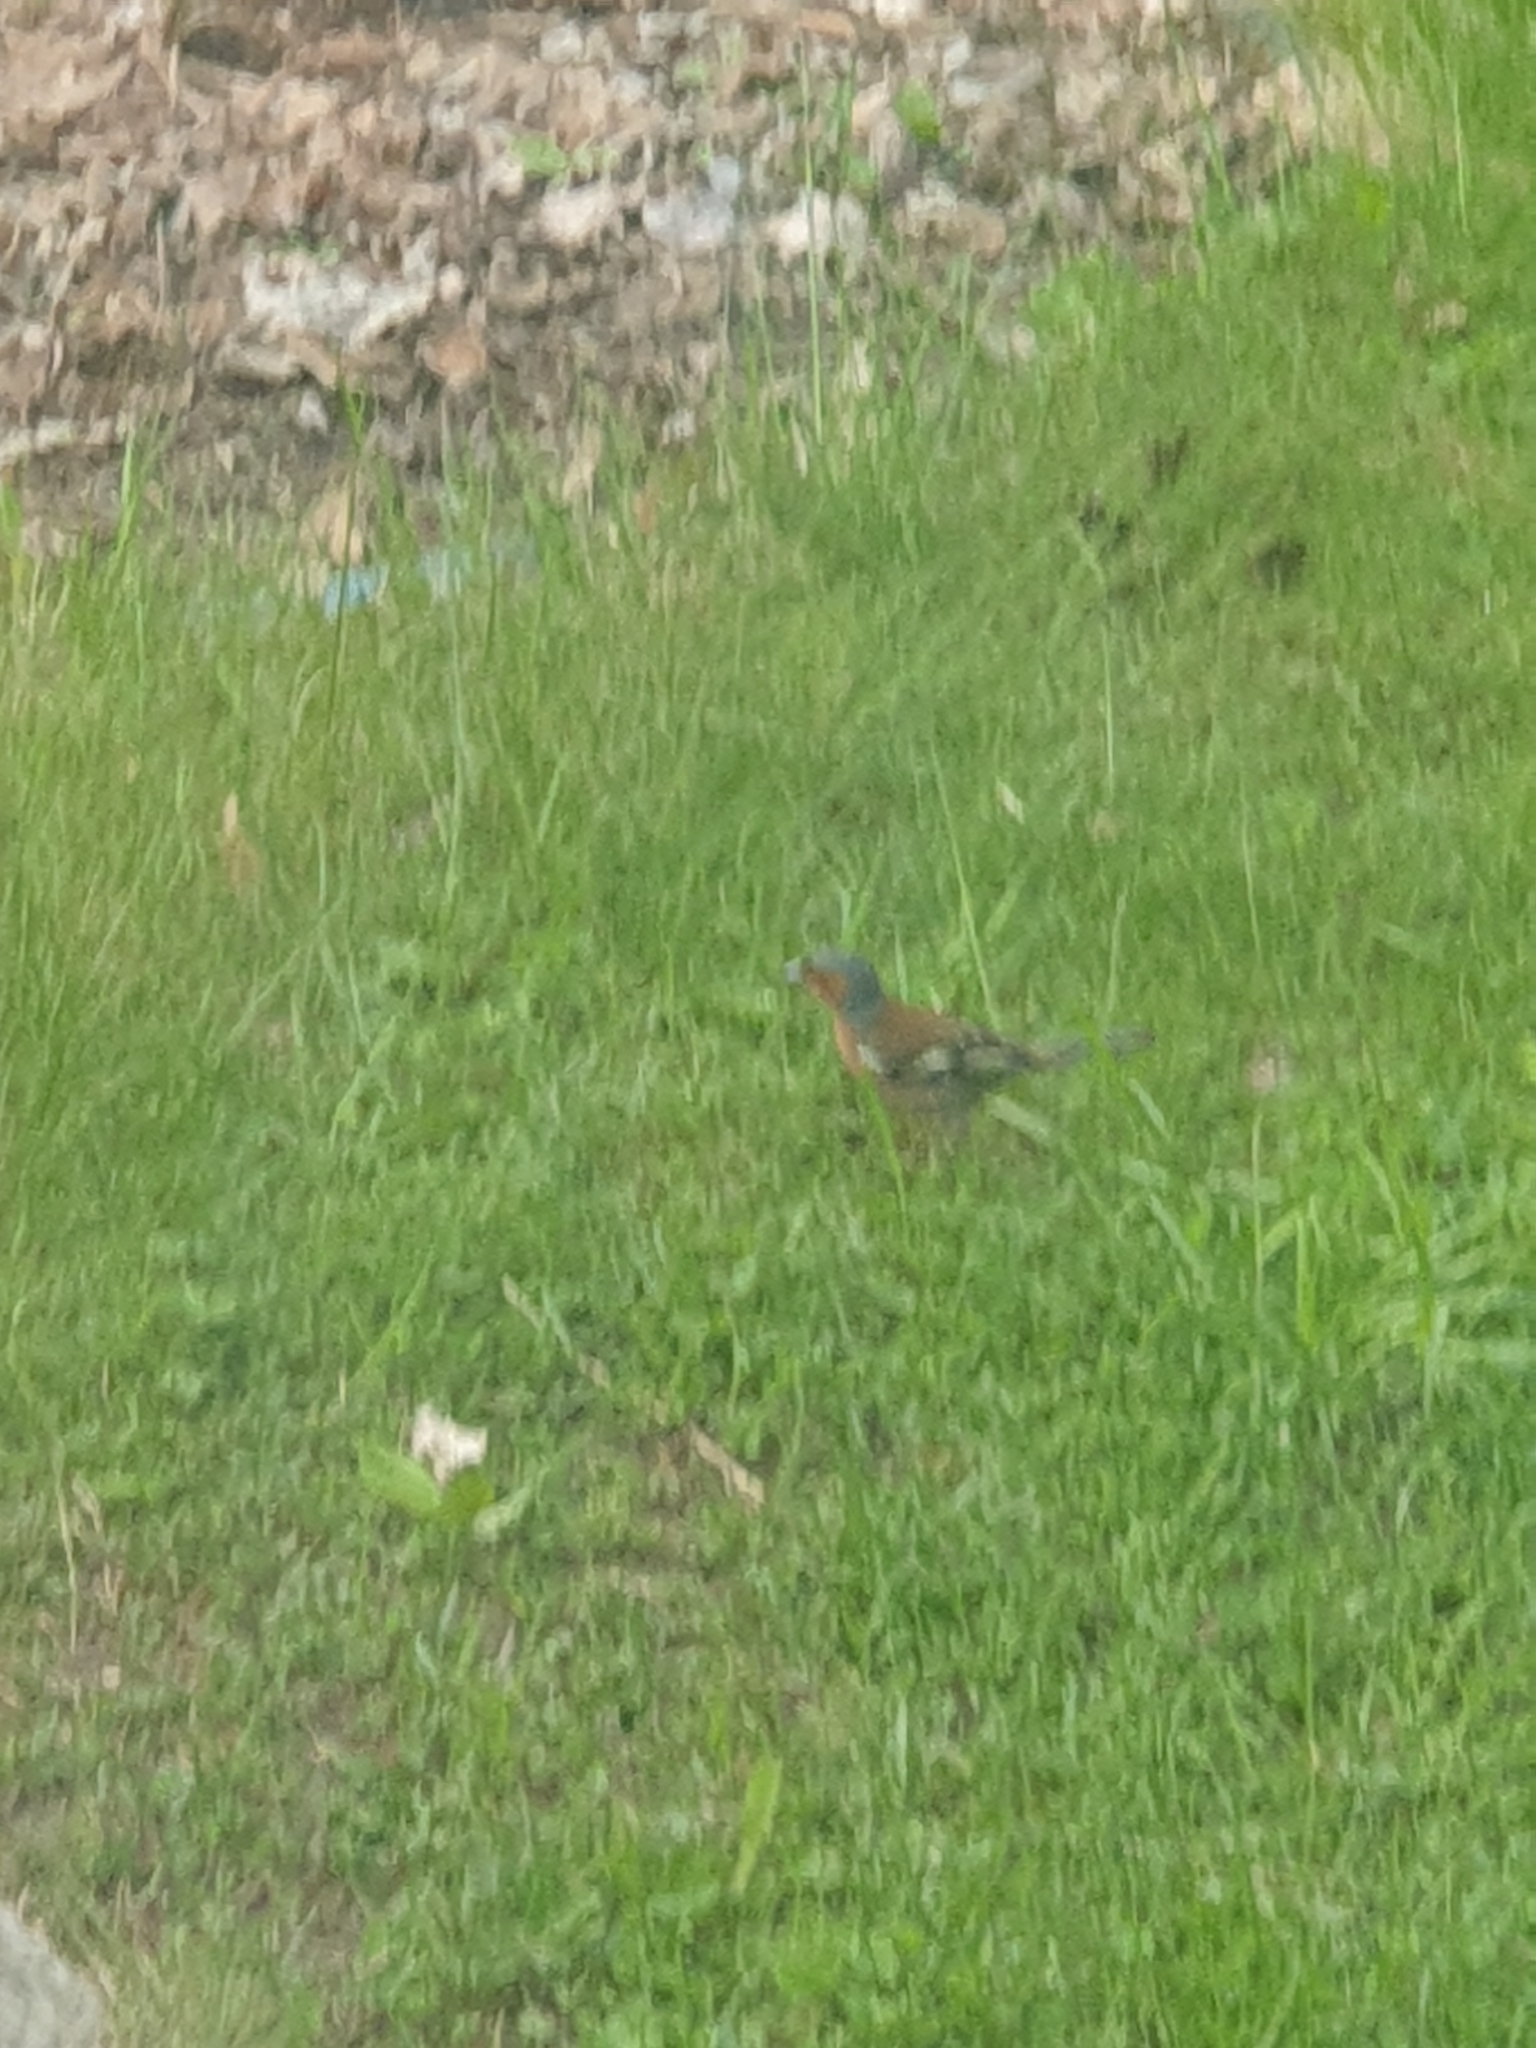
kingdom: Animalia
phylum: Chordata
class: Aves
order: Passeriformes
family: Fringillidae
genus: Fringilla
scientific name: Fringilla coelebs
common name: Common chaffinch
